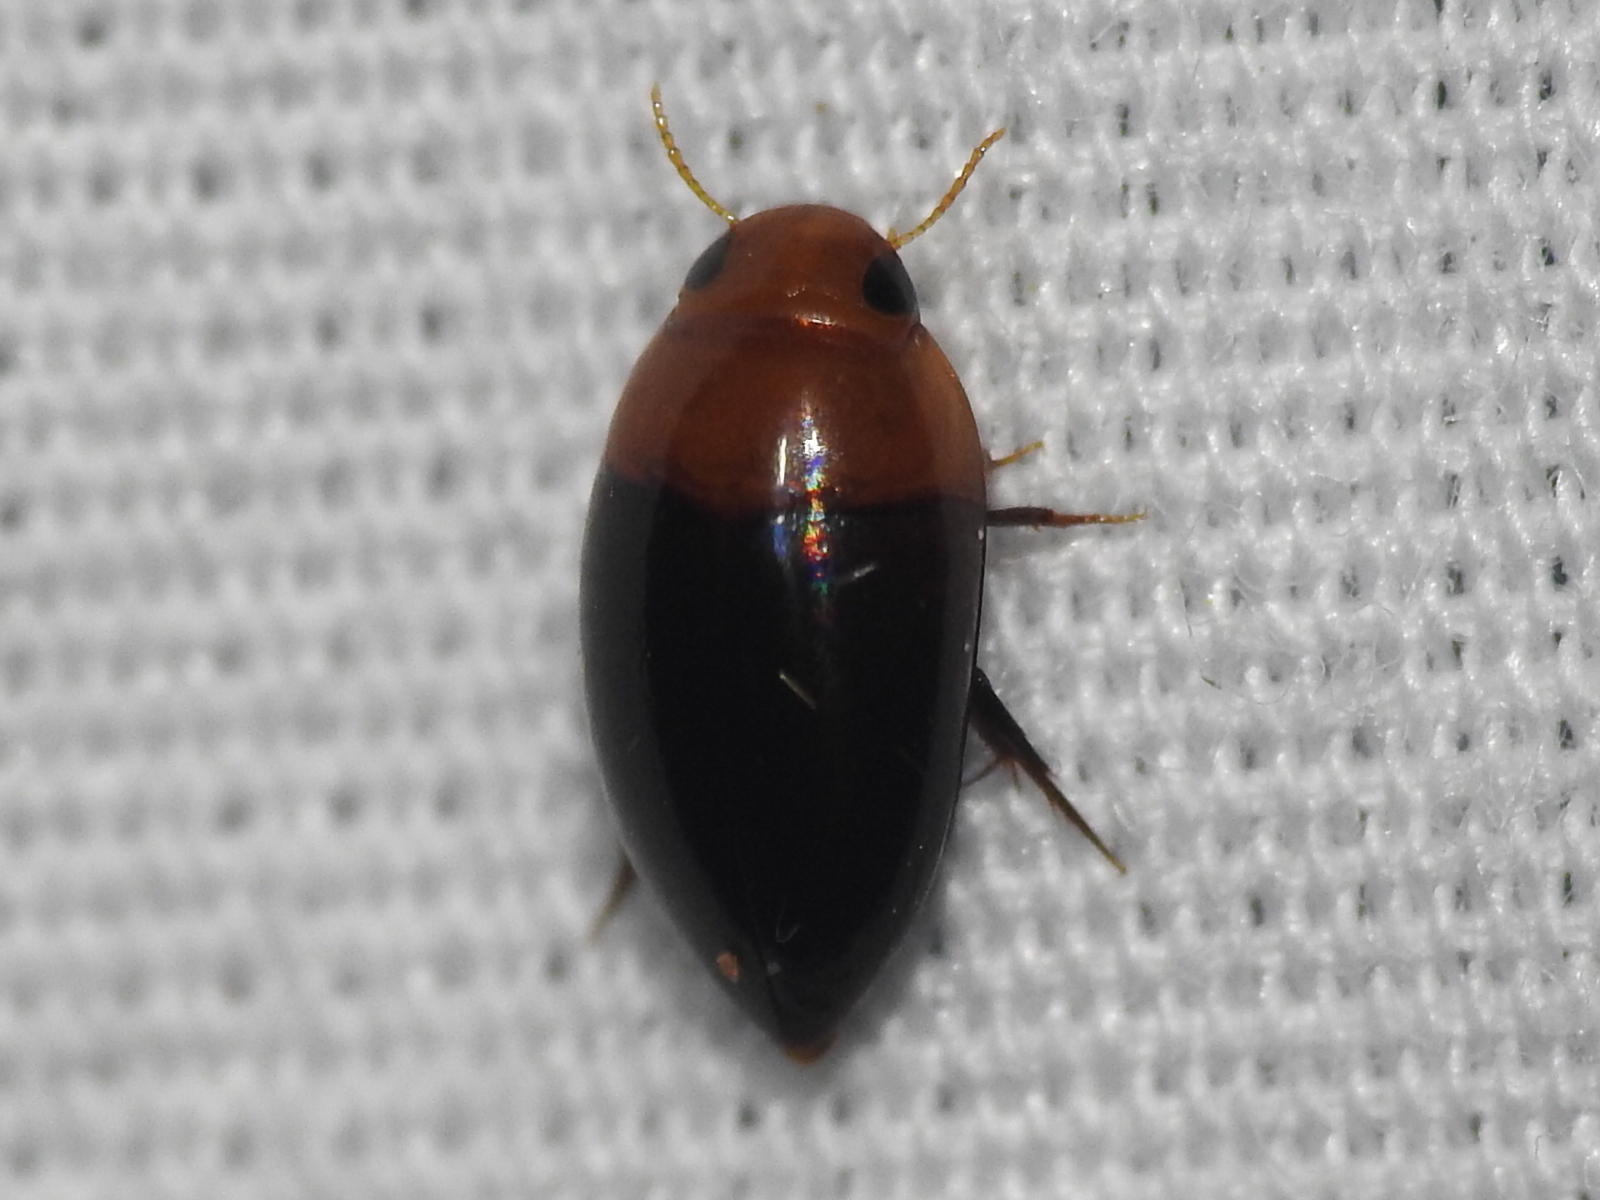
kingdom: Animalia
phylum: Arthropoda
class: Insecta
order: Coleoptera
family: Noteridae
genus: Hydrocanthus
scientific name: Hydrocanthus atripennis
